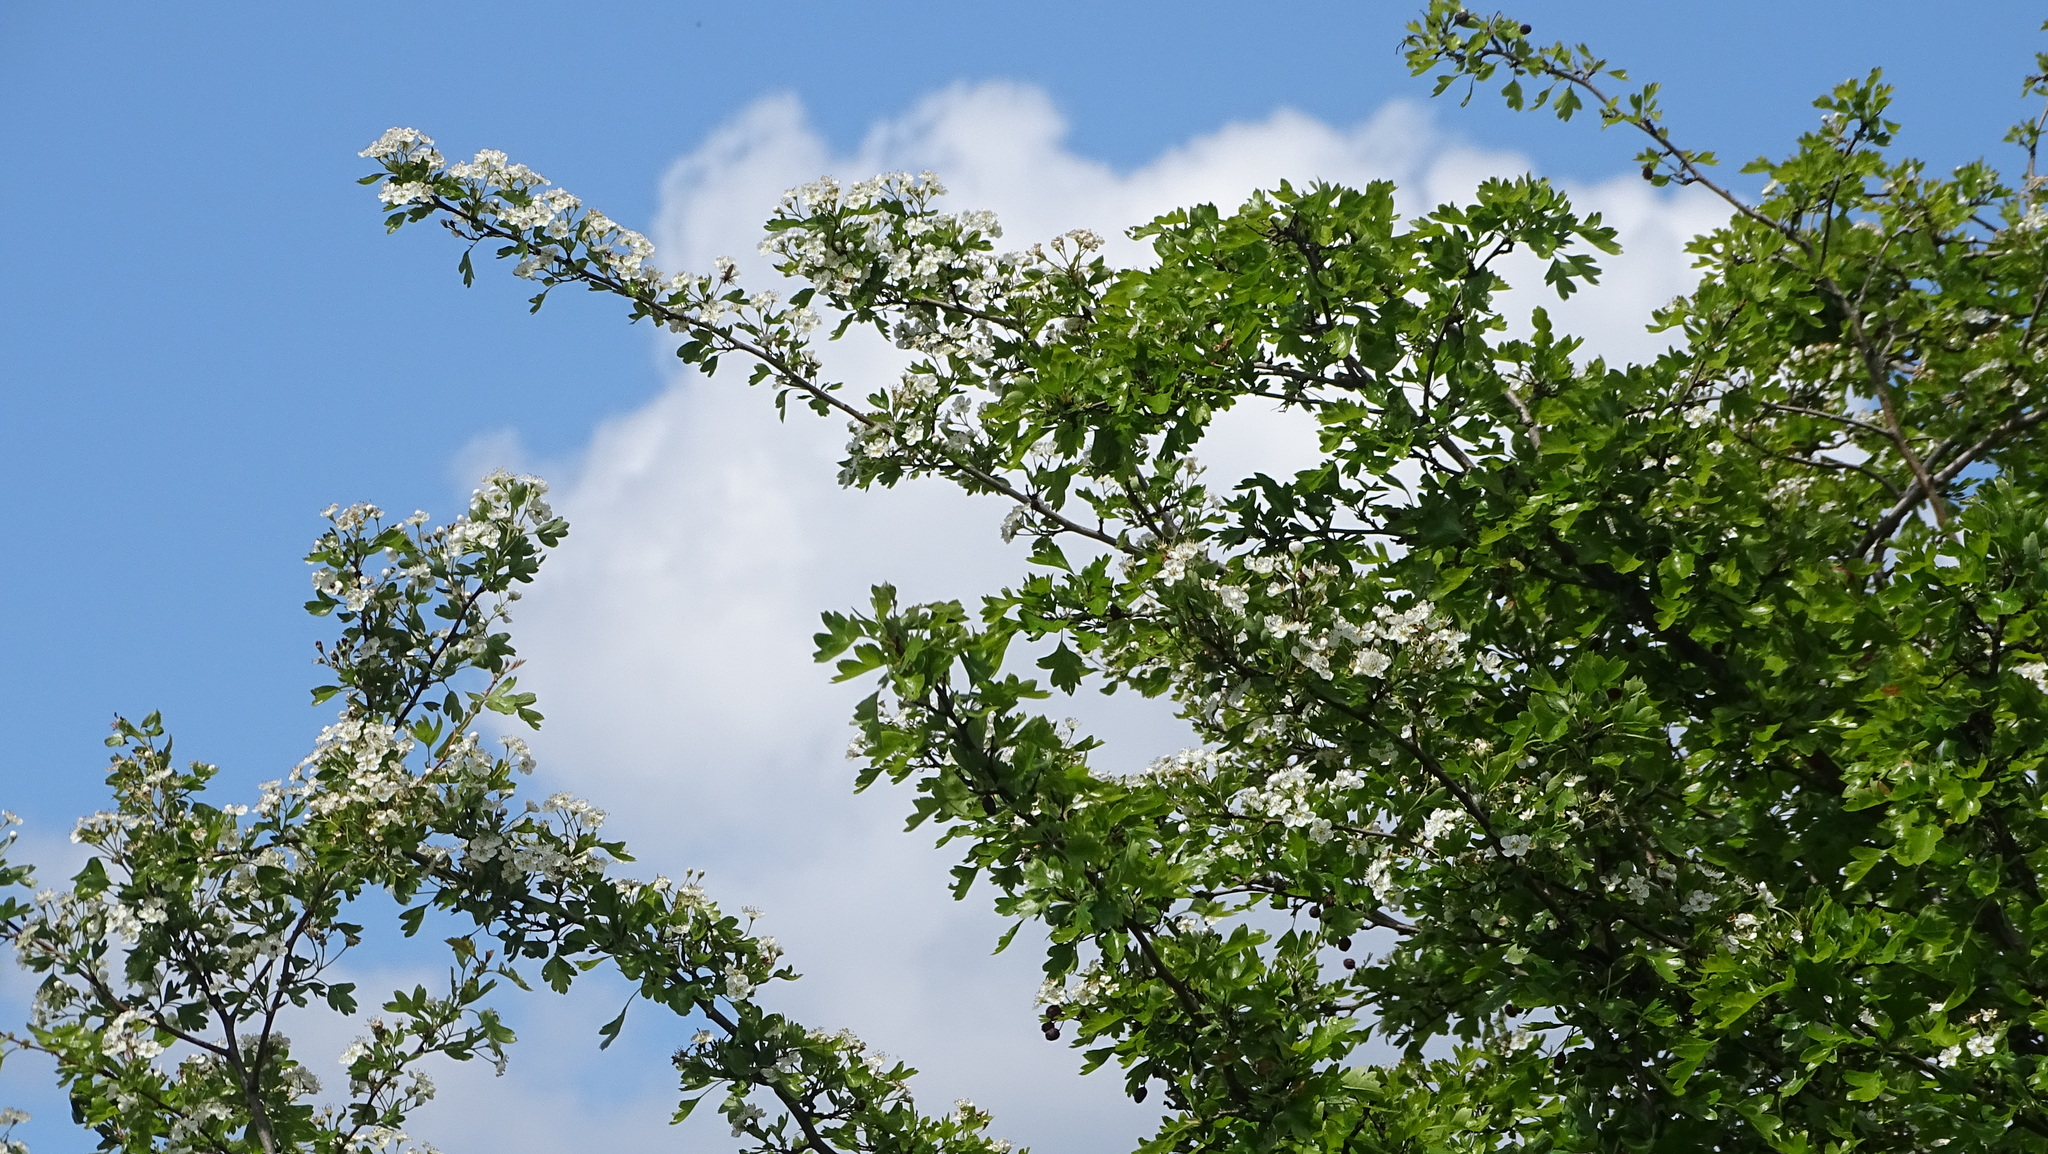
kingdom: Plantae
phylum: Tracheophyta
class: Magnoliopsida
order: Rosales
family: Rosaceae
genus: Crataegus
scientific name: Crataegus monogyna
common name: Hawthorn
